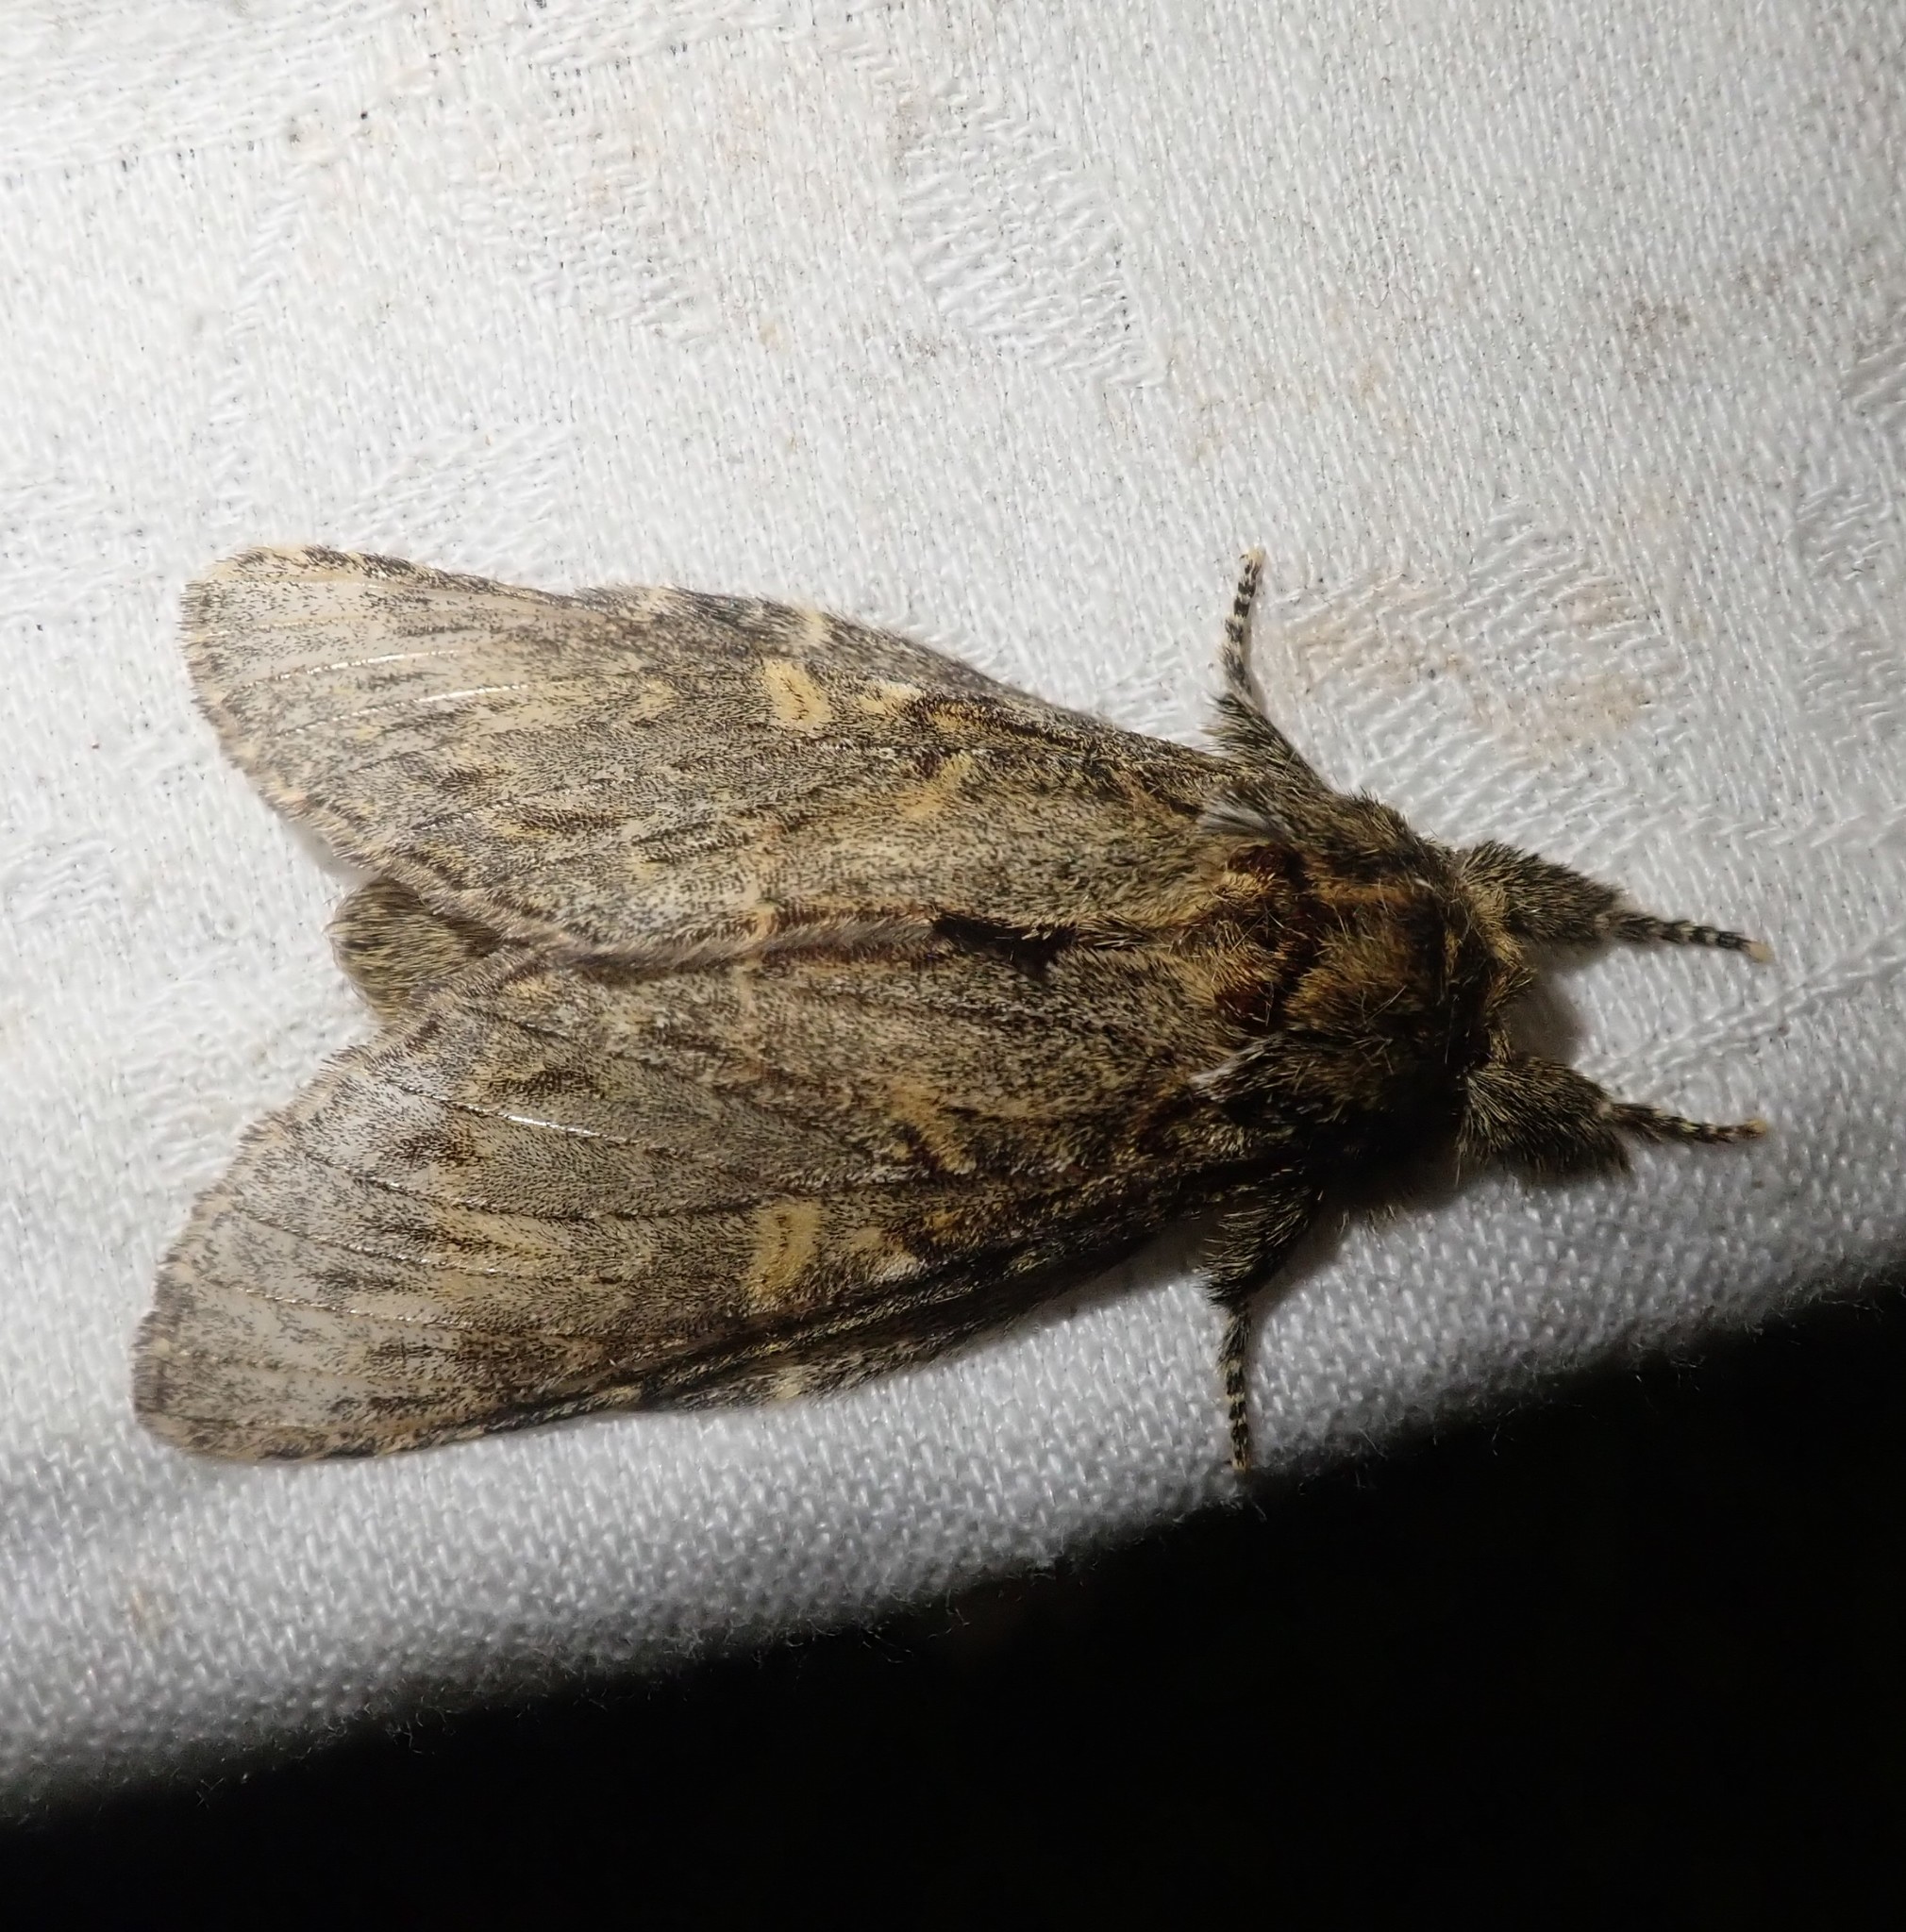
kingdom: Animalia
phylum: Arthropoda
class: Insecta
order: Lepidoptera
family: Notodontidae
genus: Peridea
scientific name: Peridea anceps
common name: Great prominent
